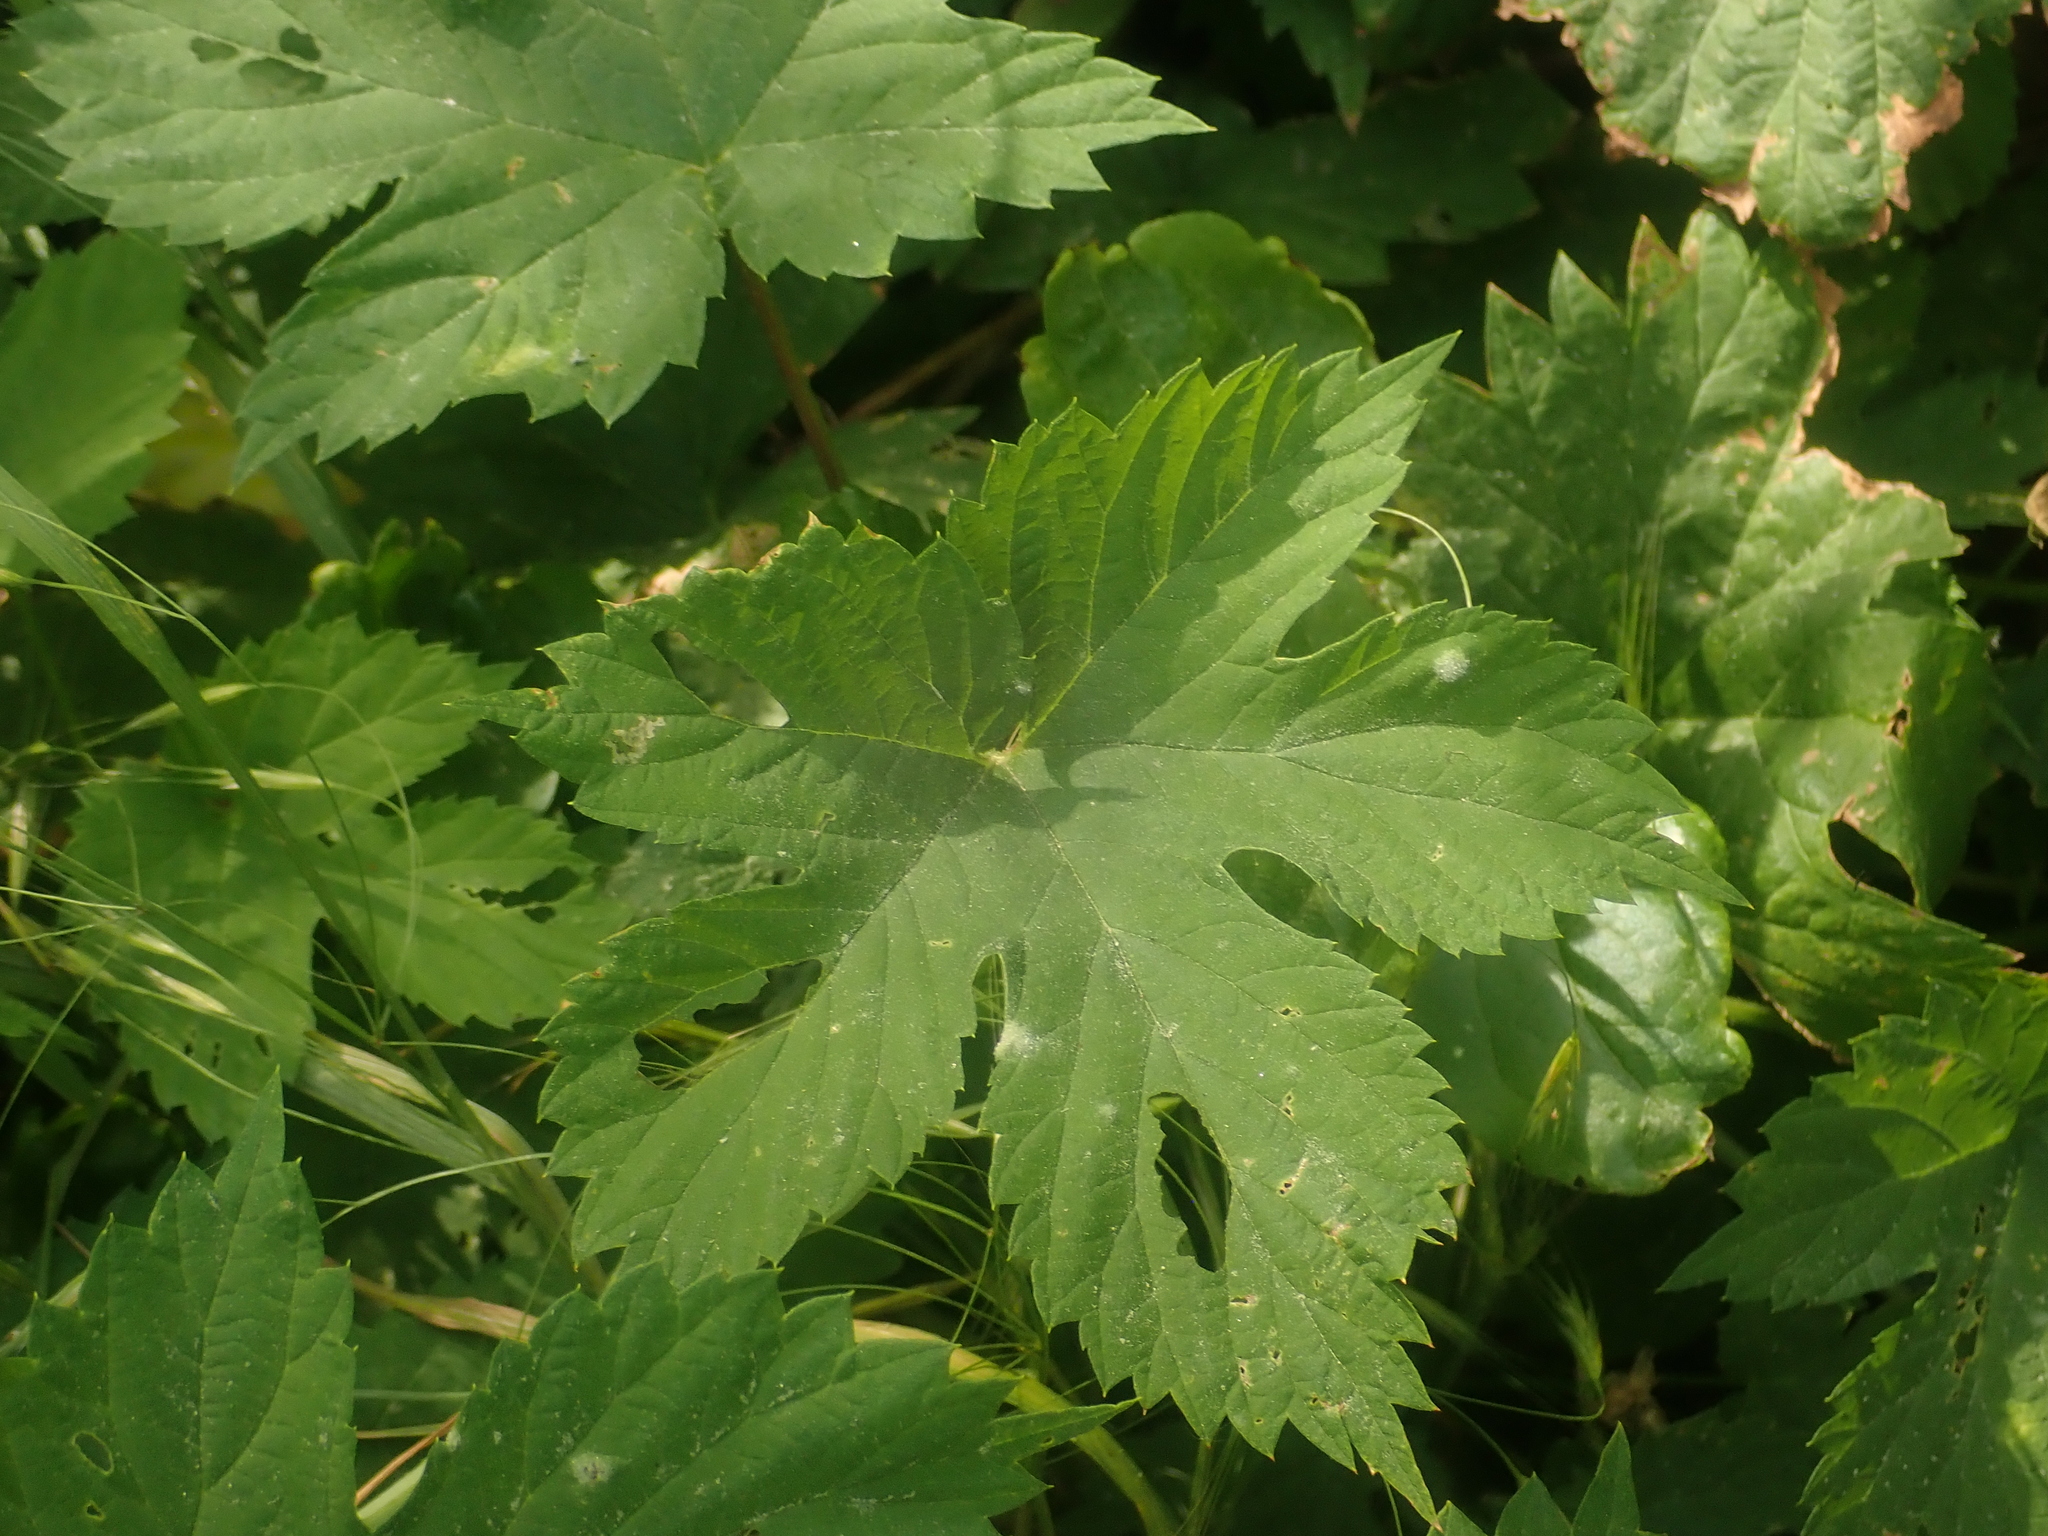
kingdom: Plantae
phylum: Tracheophyta
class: Magnoliopsida
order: Rosales
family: Cannabaceae
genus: Humulus
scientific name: Humulus lupulus
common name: Hop
